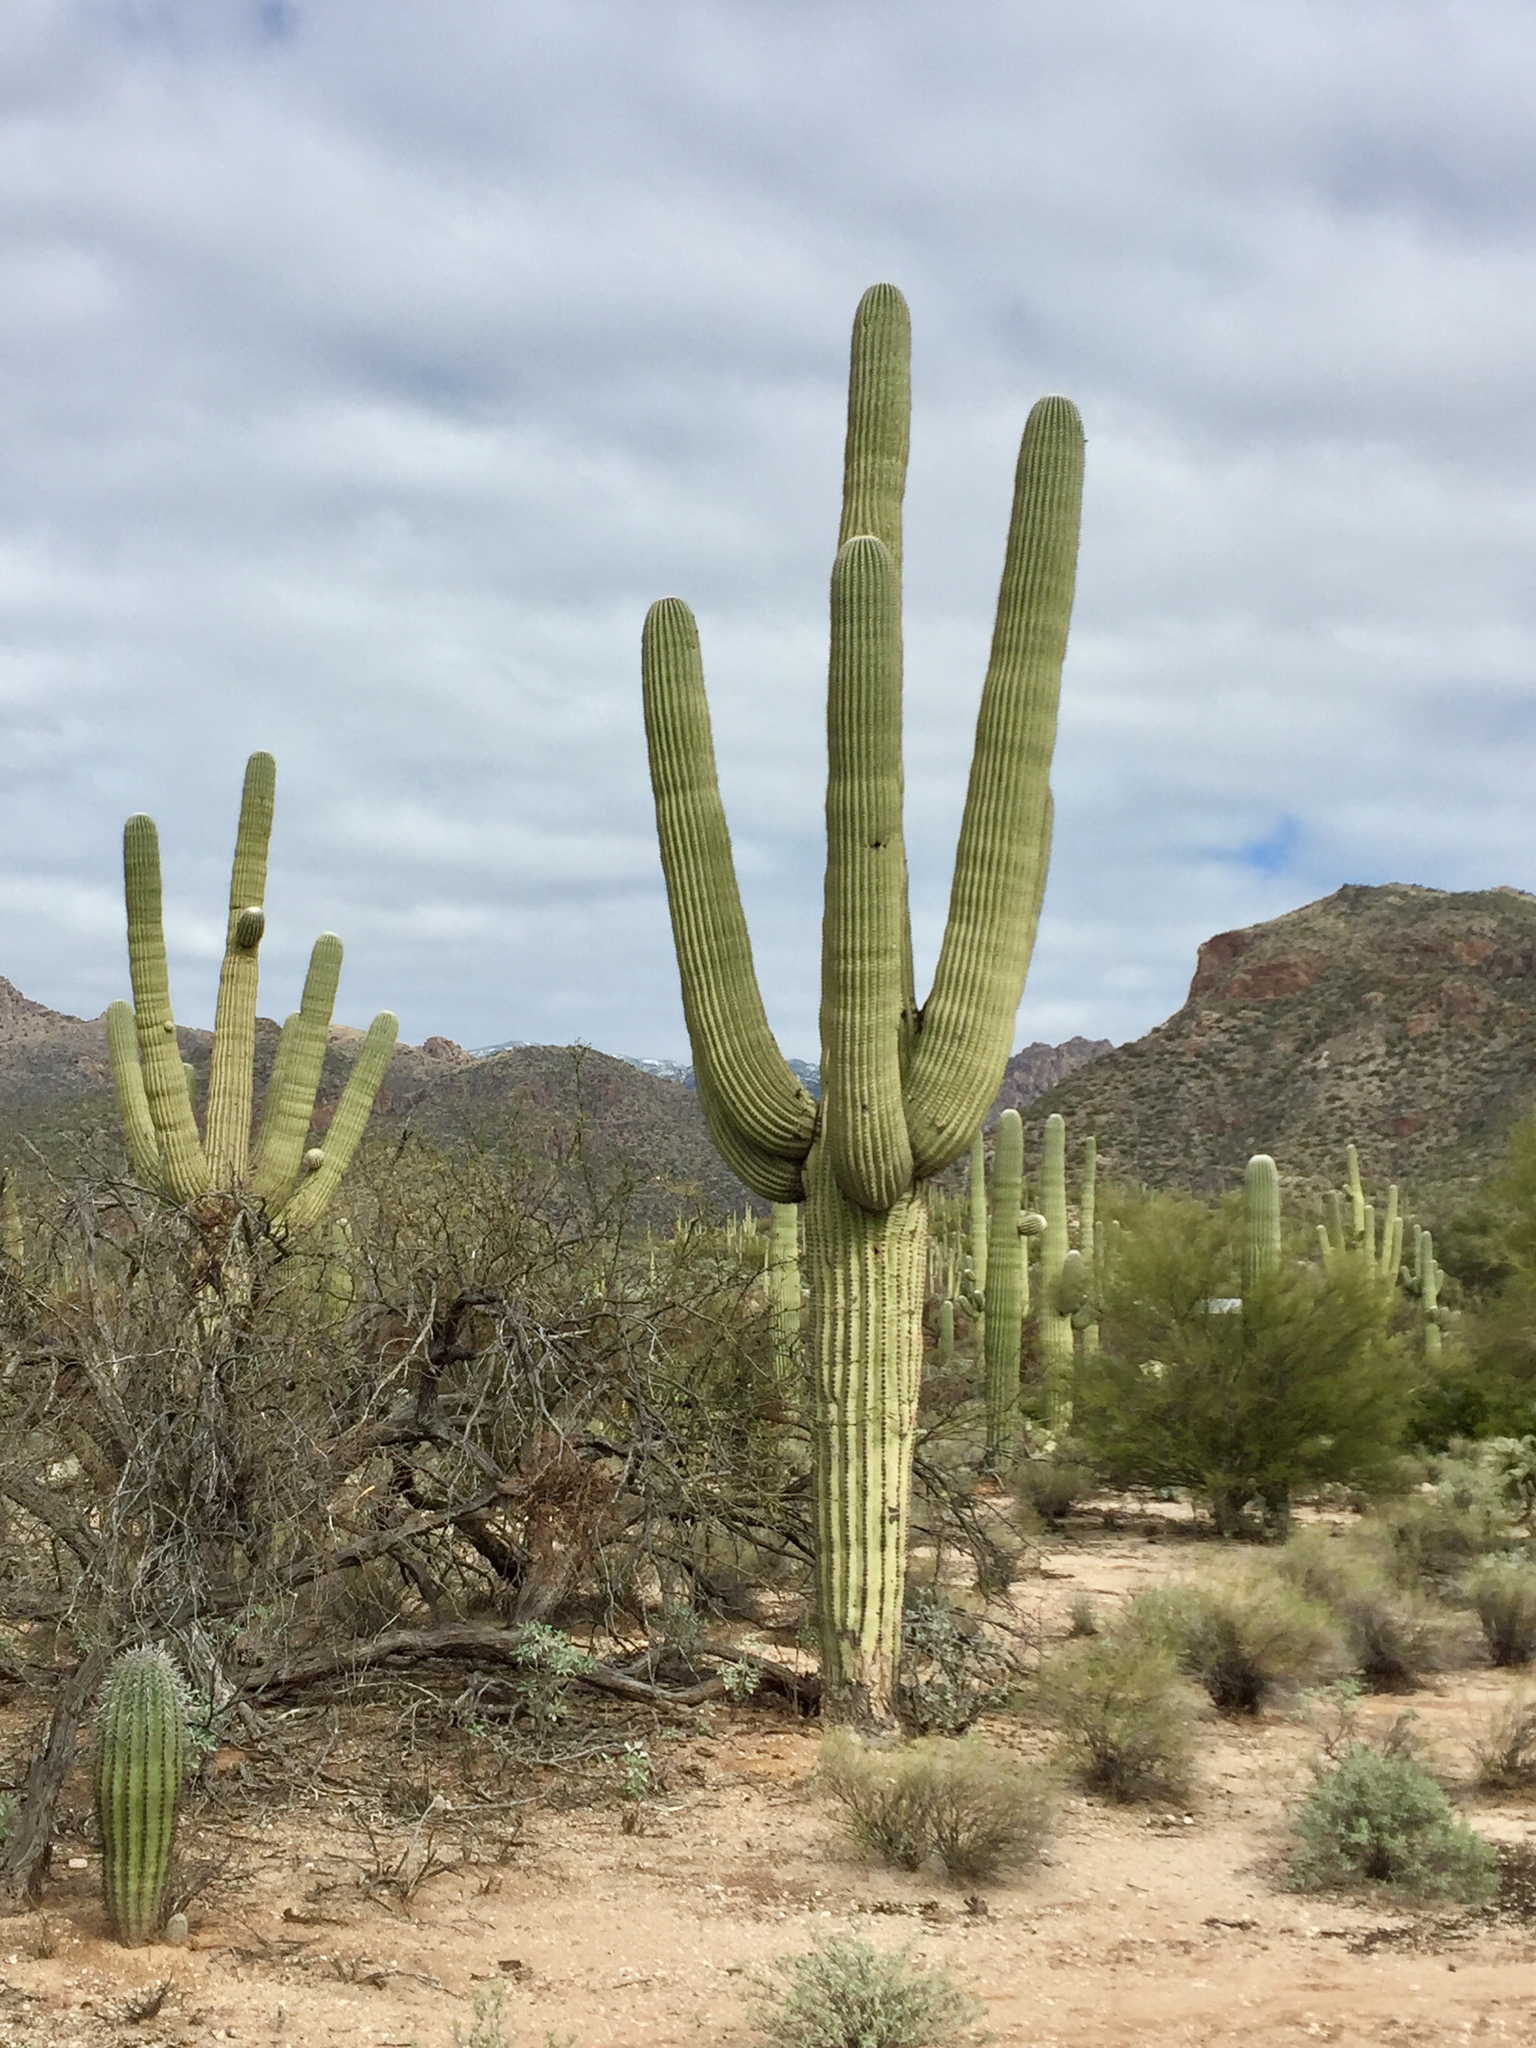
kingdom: Plantae
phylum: Tracheophyta
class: Magnoliopsida
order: Caryophyllales
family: Cactaceae
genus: Carnegiea
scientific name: Carnegiea gigantea
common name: Saguaro
